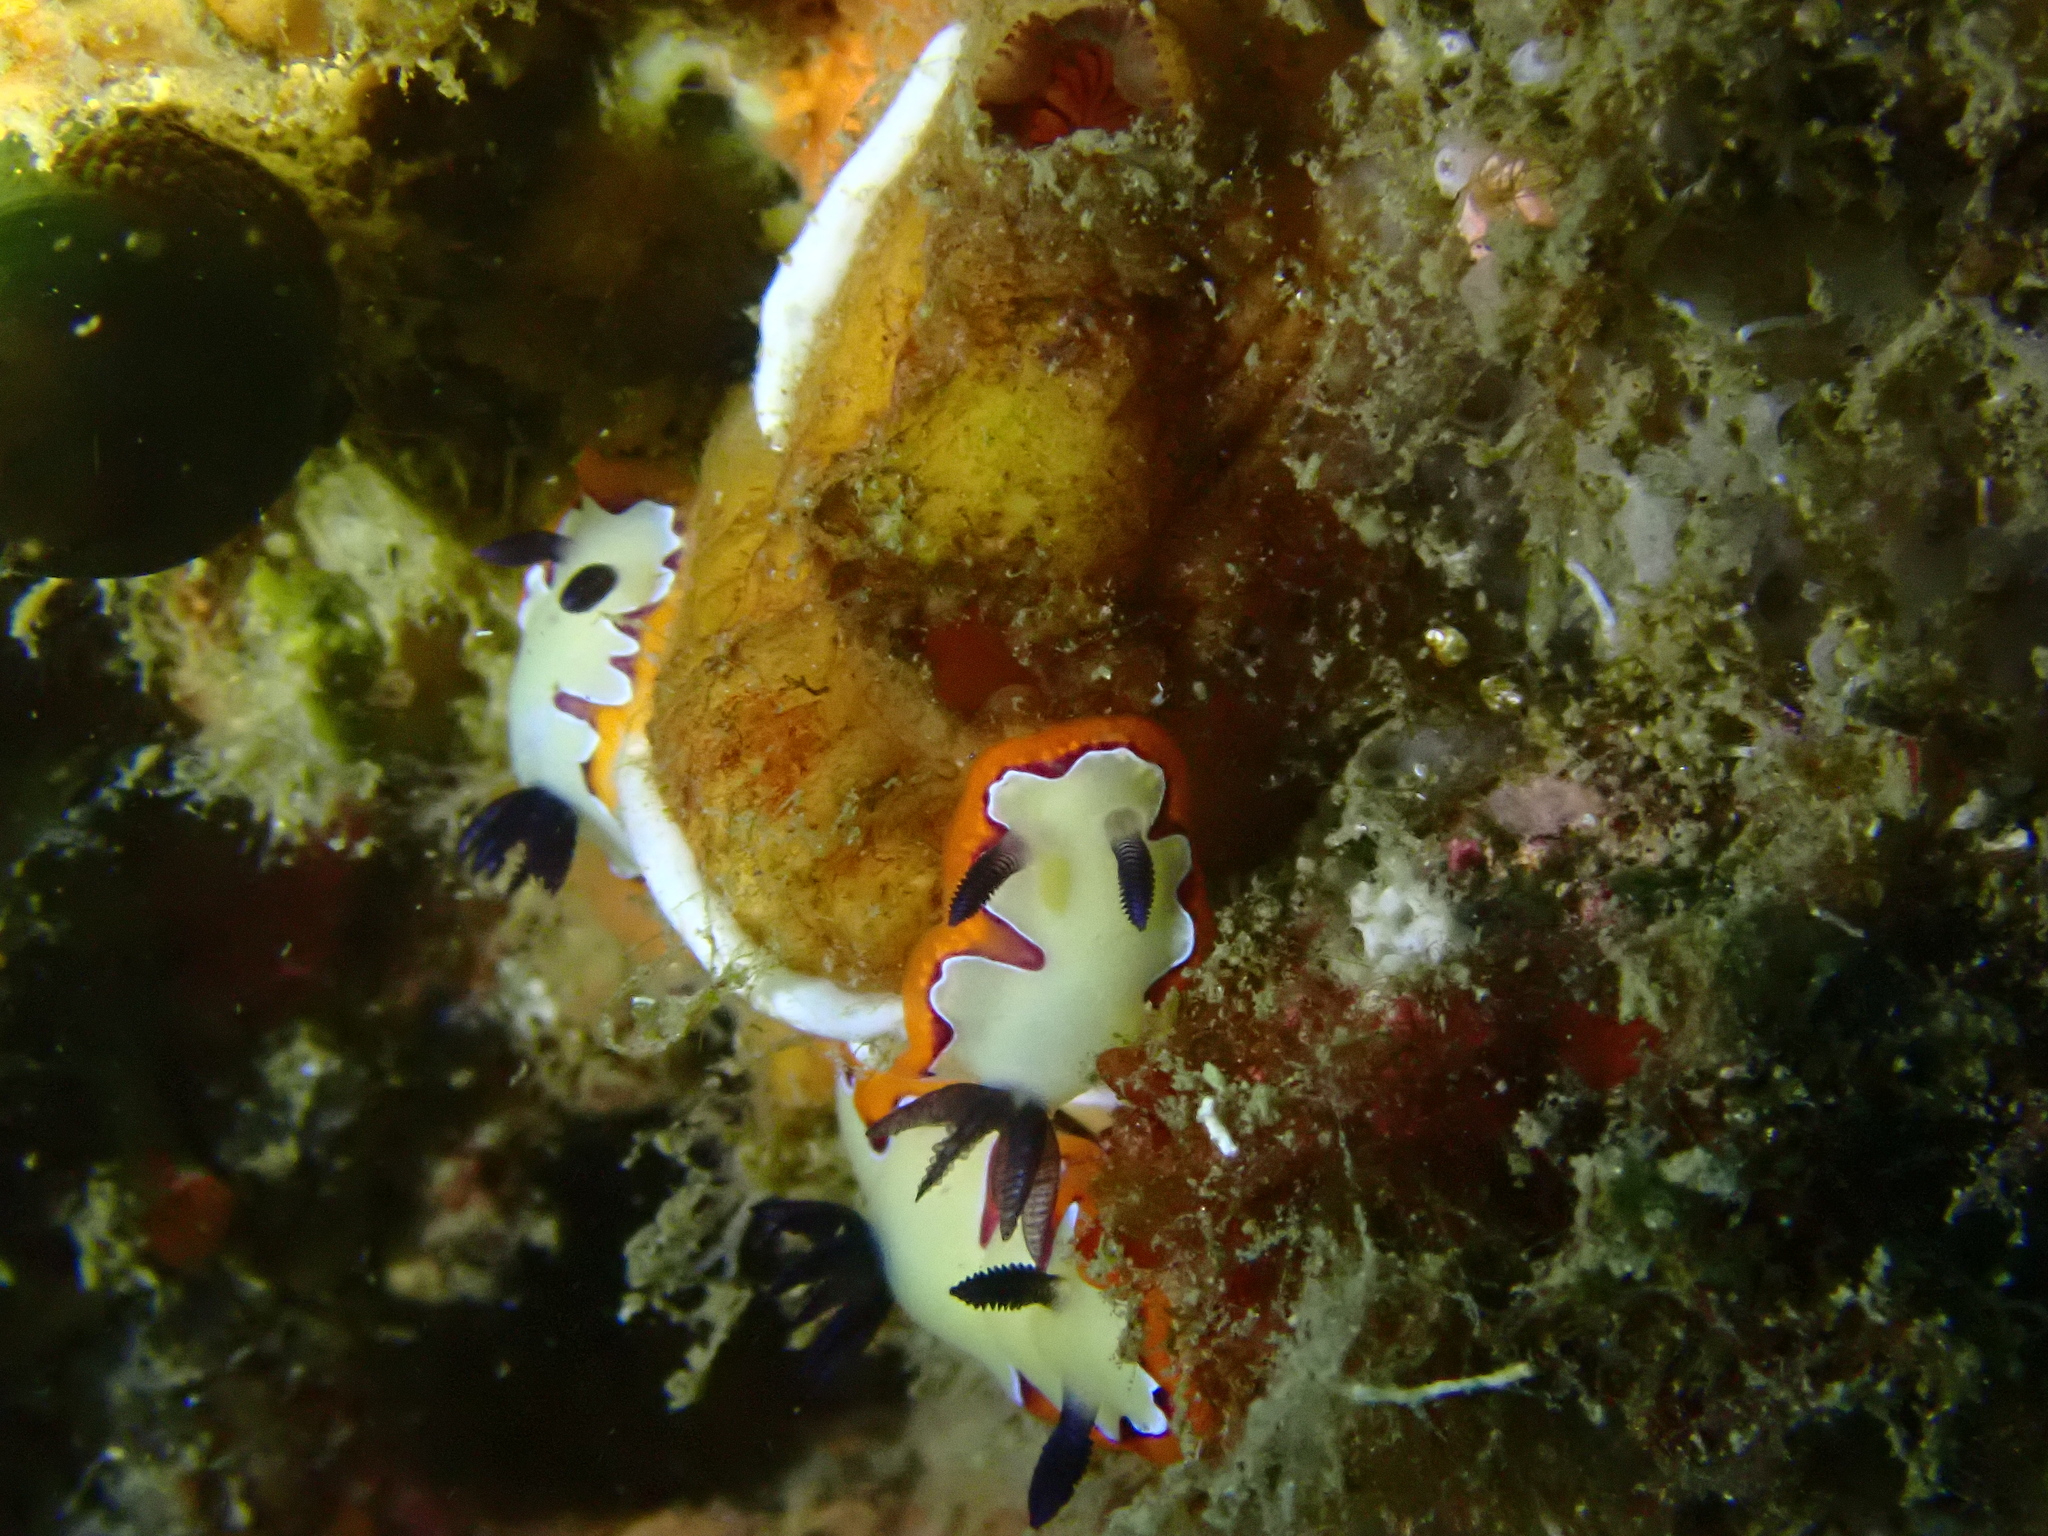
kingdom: Animalia
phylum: Mollusca
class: Gastropoda
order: Nudibranchia
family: Chromodorididae
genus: Goniobranchus
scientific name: Goniobranchus fidelis
